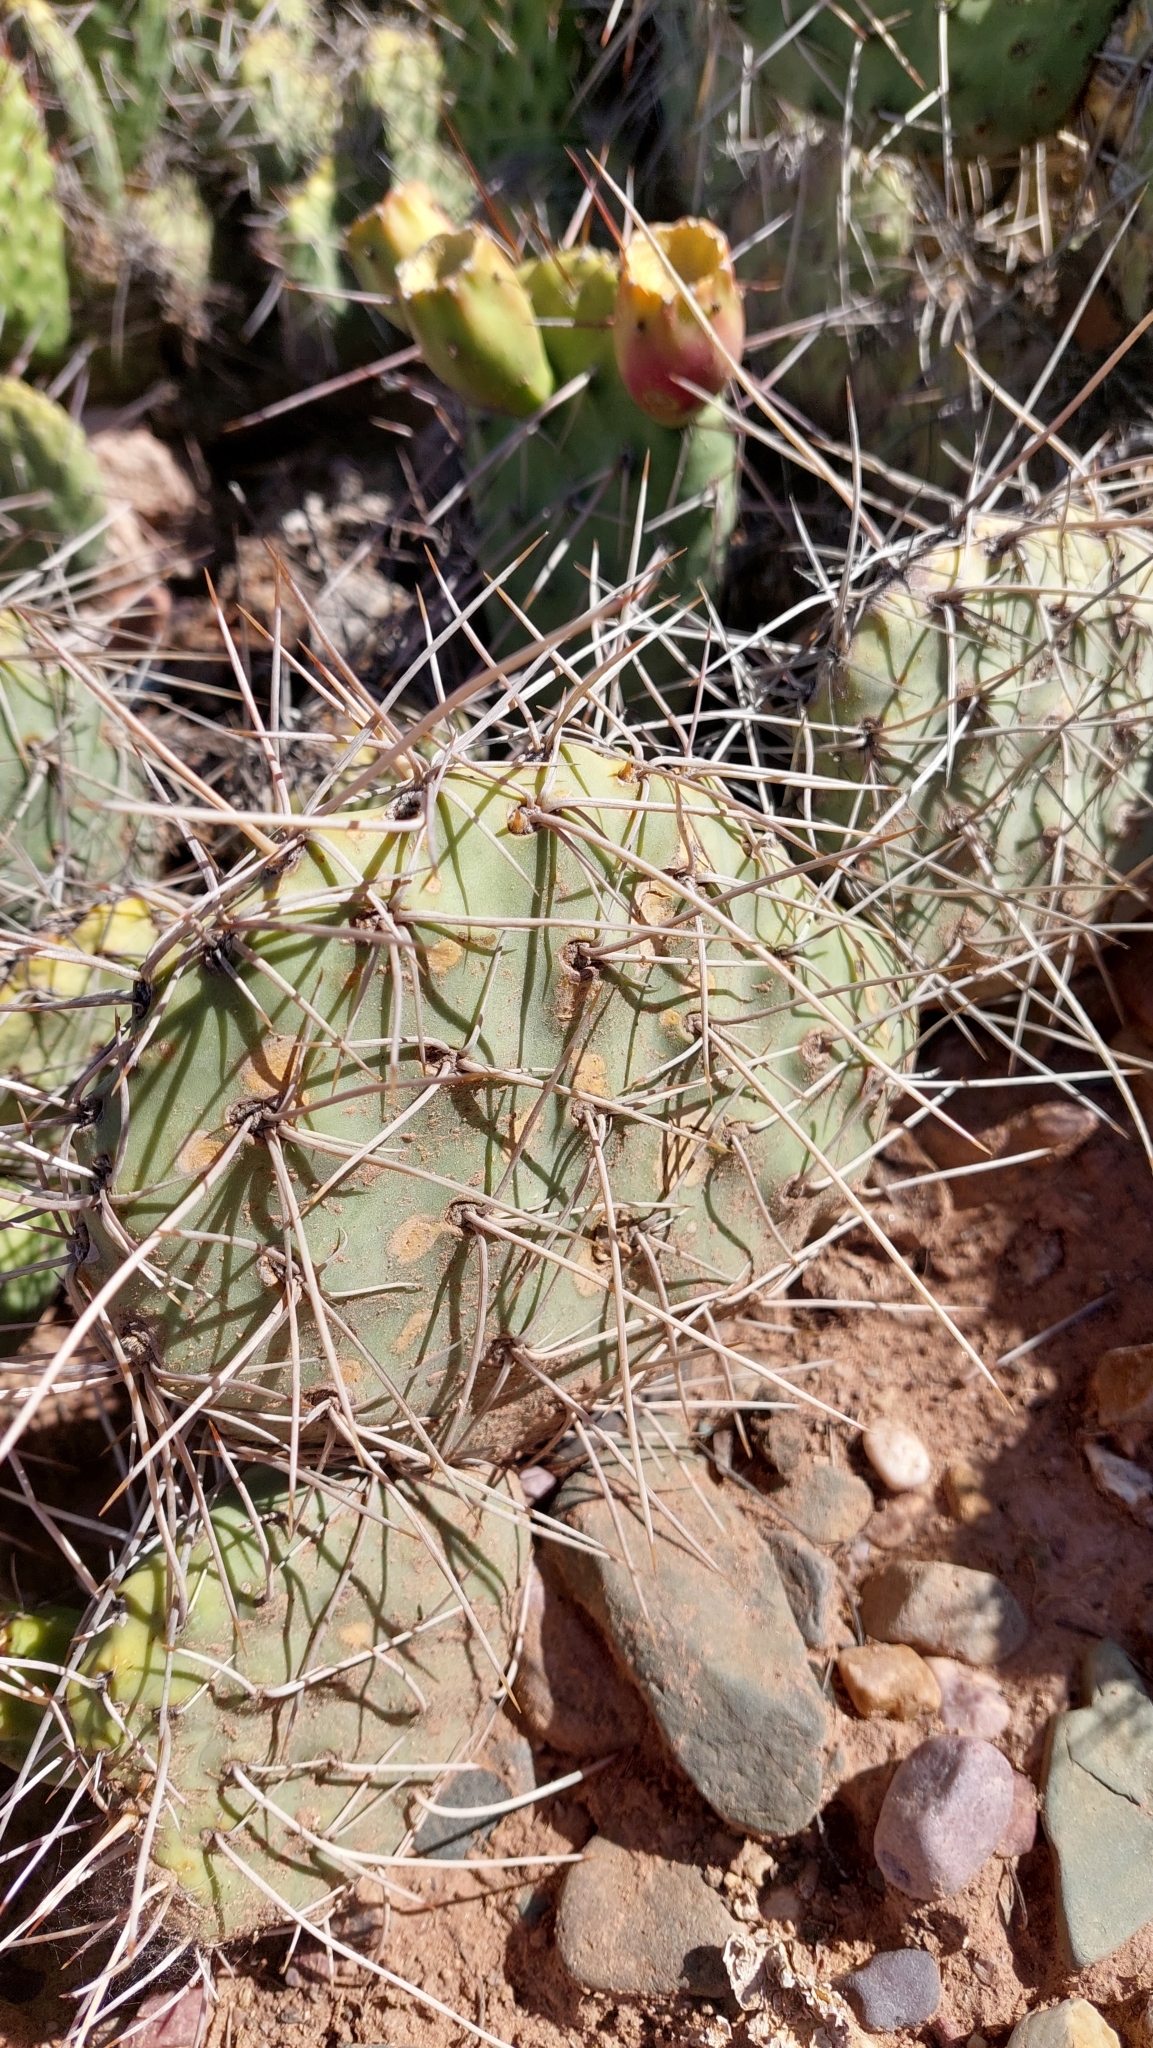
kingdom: Plantae
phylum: Tracheophyta
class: Magnoliopsida
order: Caryophyllales
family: Cactaceae
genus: Opuntia
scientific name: Opuntia sulphurea
